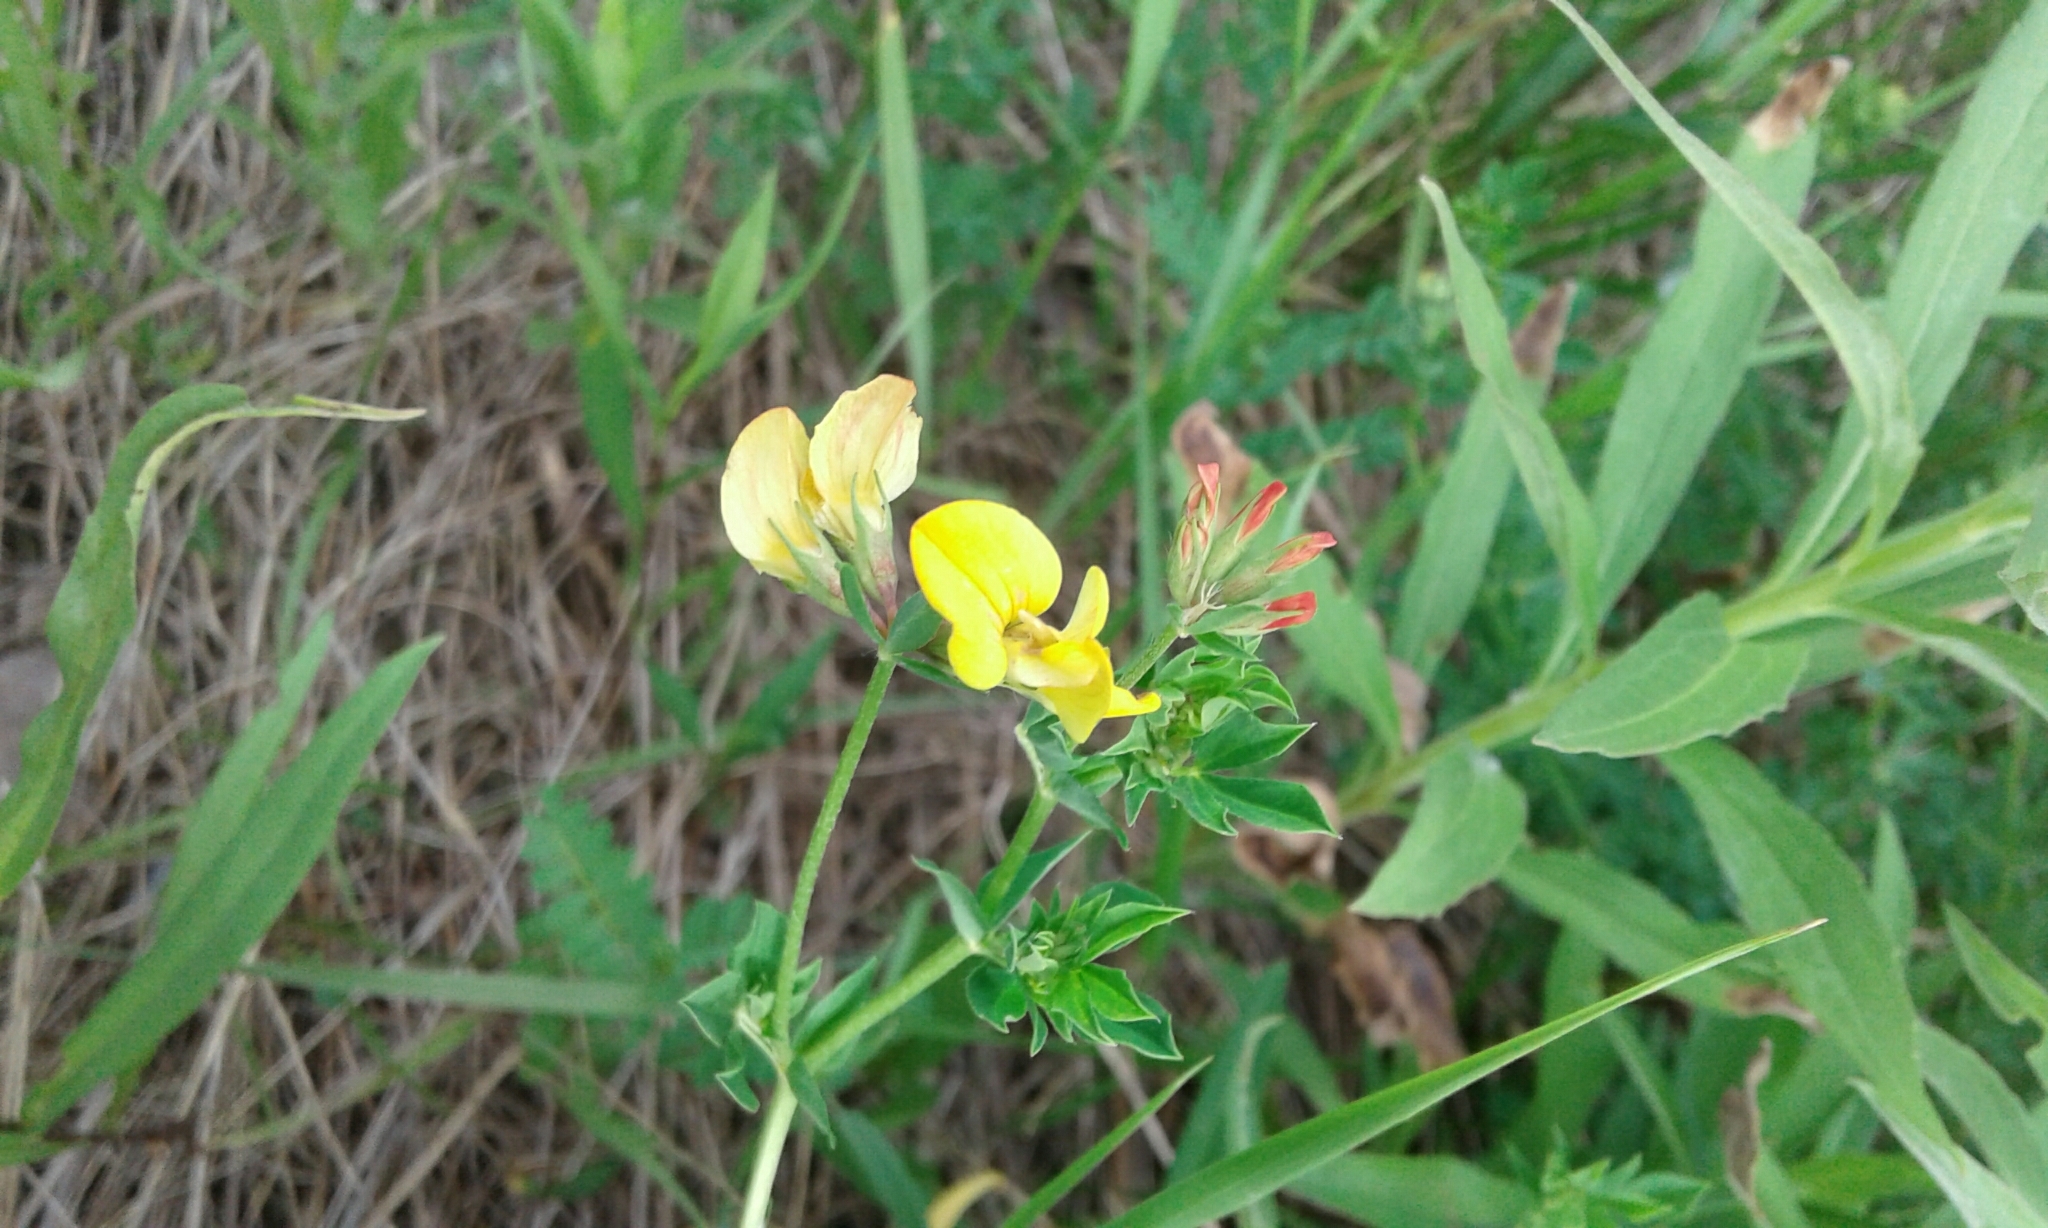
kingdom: Plantae
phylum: Tracheophyta
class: Magnoliopsida
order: Fabales
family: Fabaceae
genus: Lotus
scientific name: Lotus corniculatus
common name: Common bird's-foot-trefoil
